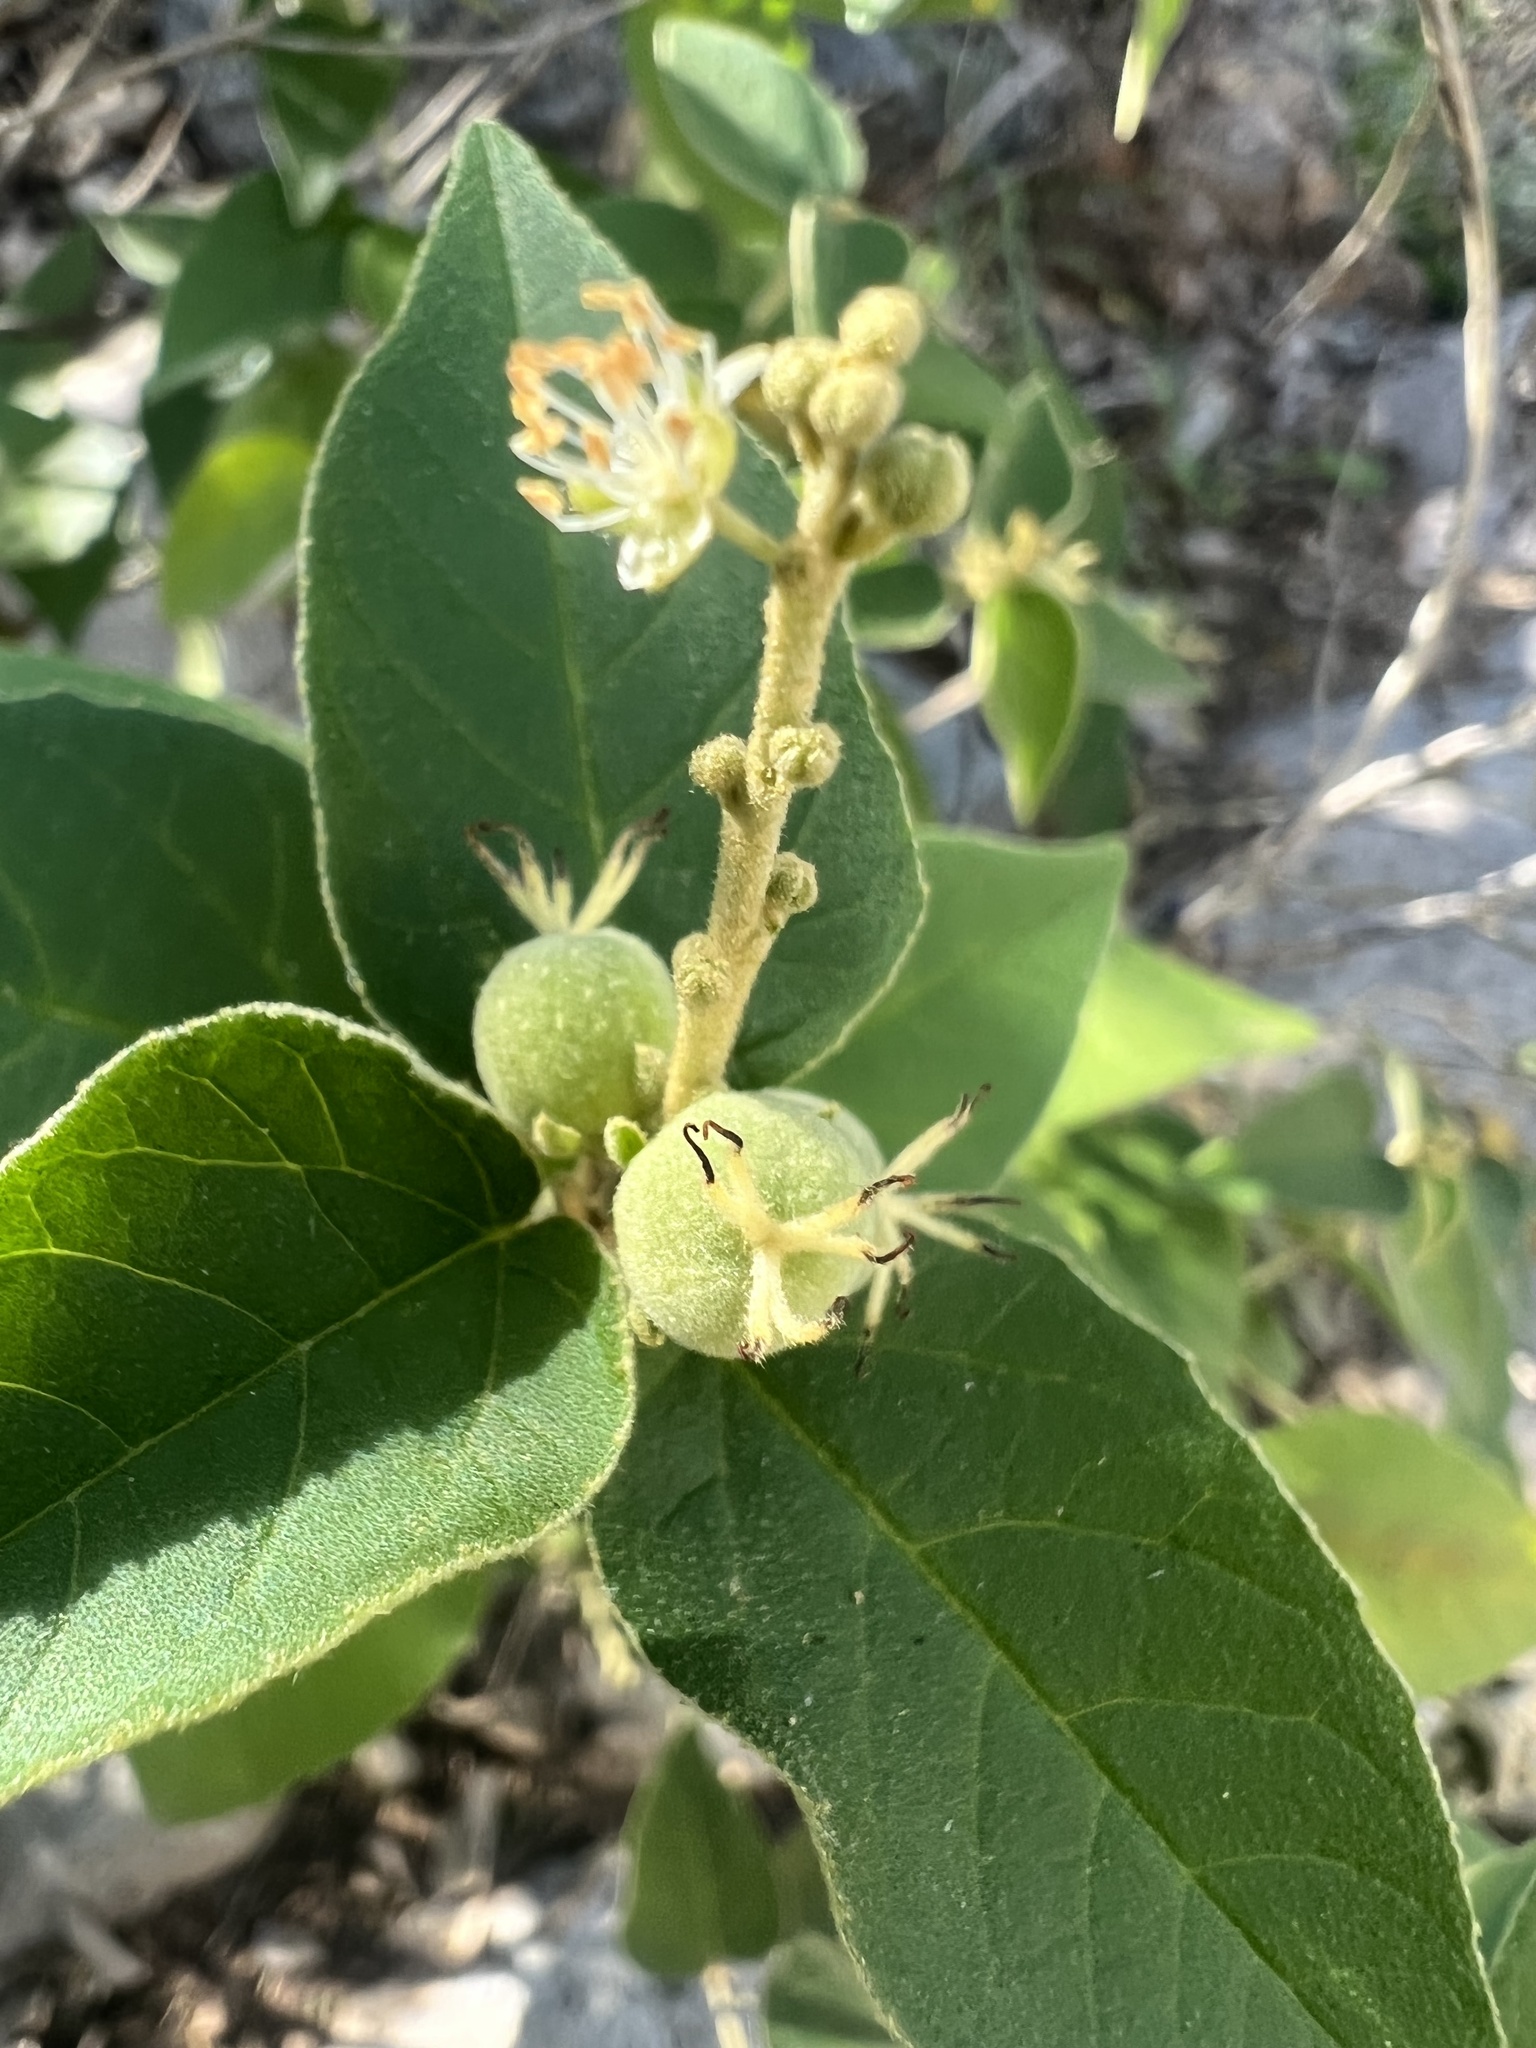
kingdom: Plantae
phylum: Tracheophyta
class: Magnoliopsida
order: Malpighiales
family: Euphorbiaceae
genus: Croton
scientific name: Croton fruticulosus
